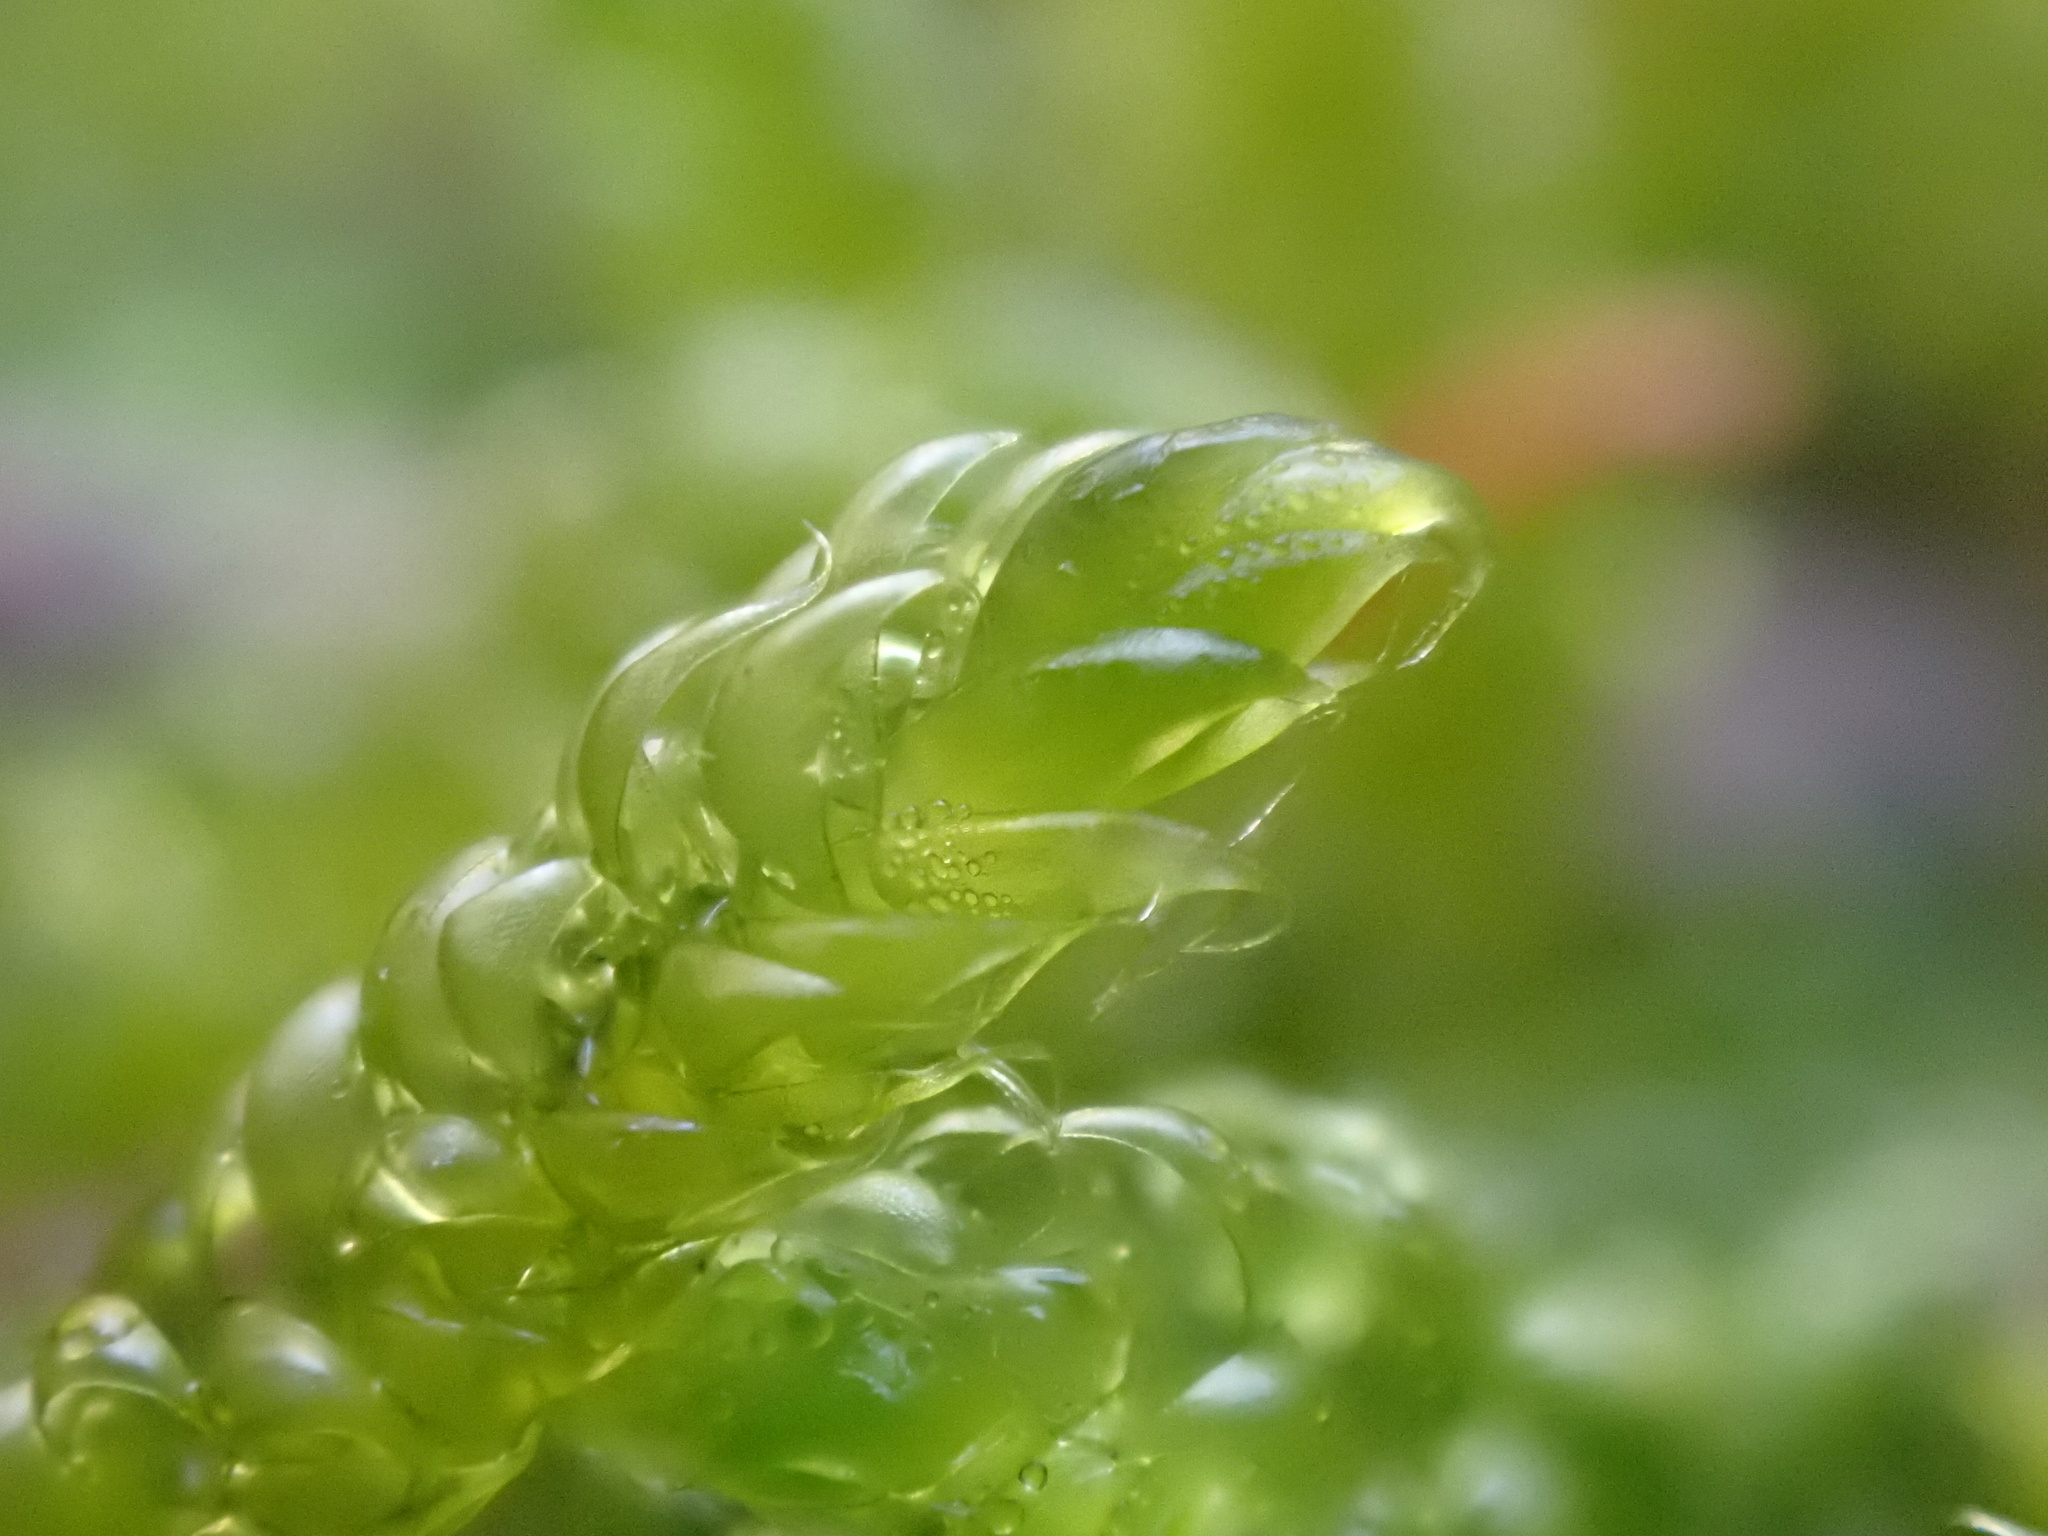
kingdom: Plantae
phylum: Bryophyta
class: Bryopsida
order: Hypnales
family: Hypnaceae
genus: Hypnum
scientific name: Hypnum cupressiforme
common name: Cypress-leaved plait-moss
